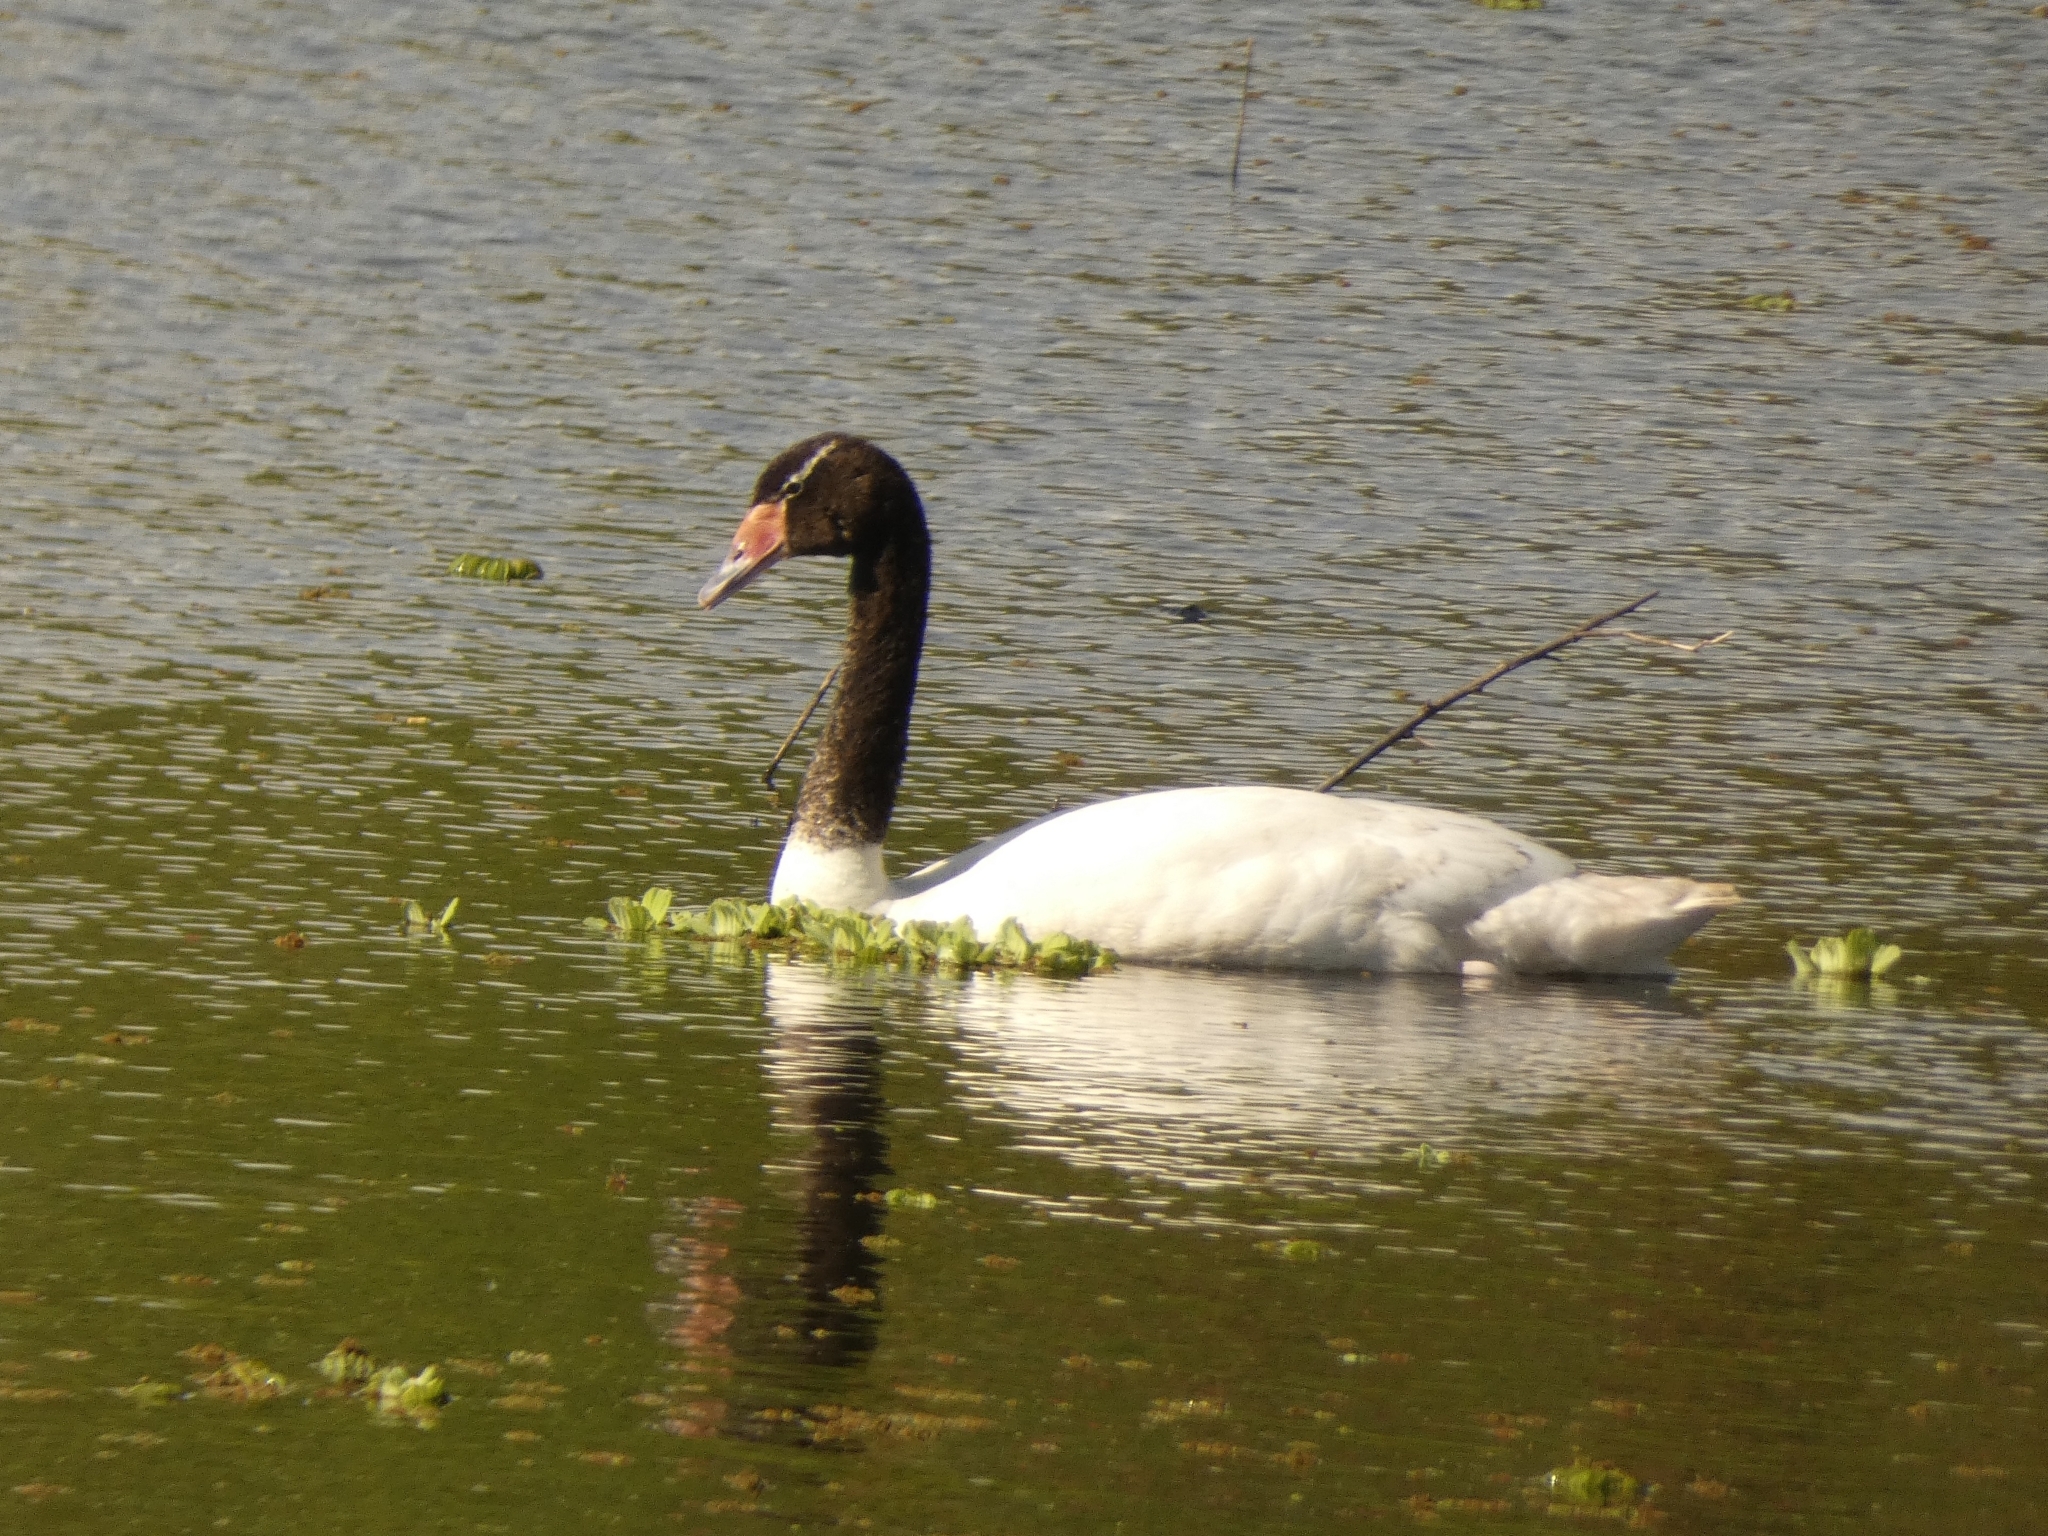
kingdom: Animalia
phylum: Chordata
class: Aves
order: Anseriformes
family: Anatidae
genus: Cygnus
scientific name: Cygnus melancoryphus
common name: Black-necked swan
